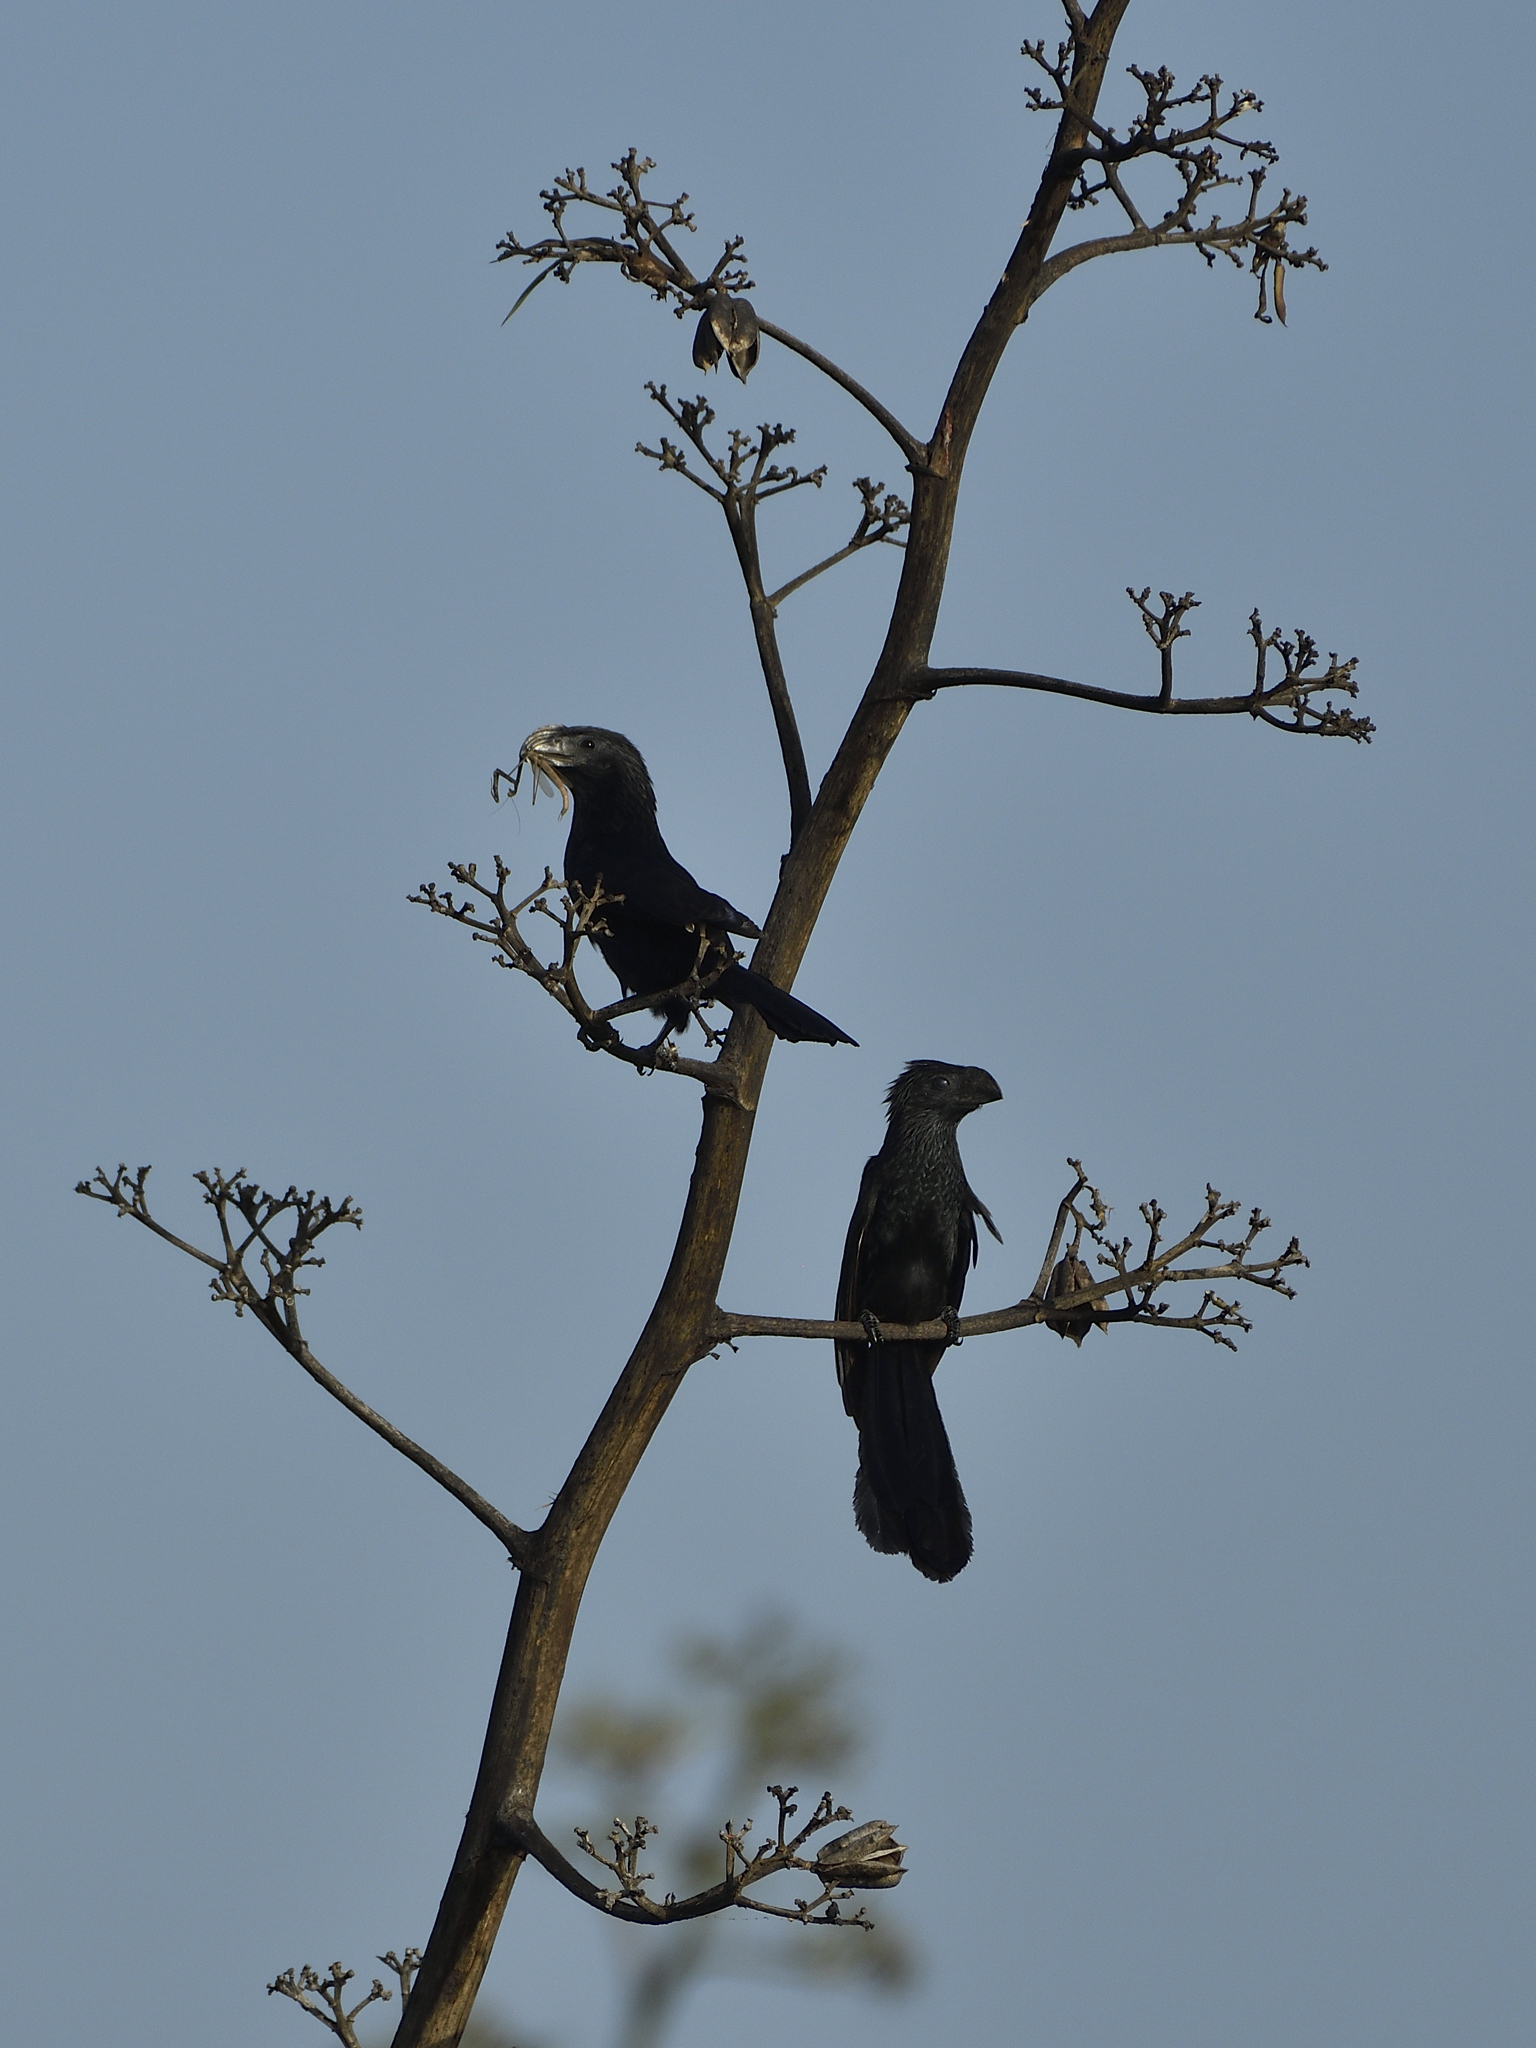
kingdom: Animalia
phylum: Chordata
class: Aves
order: Cuculiformes
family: Cuculidae
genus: Crotophaga
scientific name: Crotophaga sulcirostris
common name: Groove-billed ani
